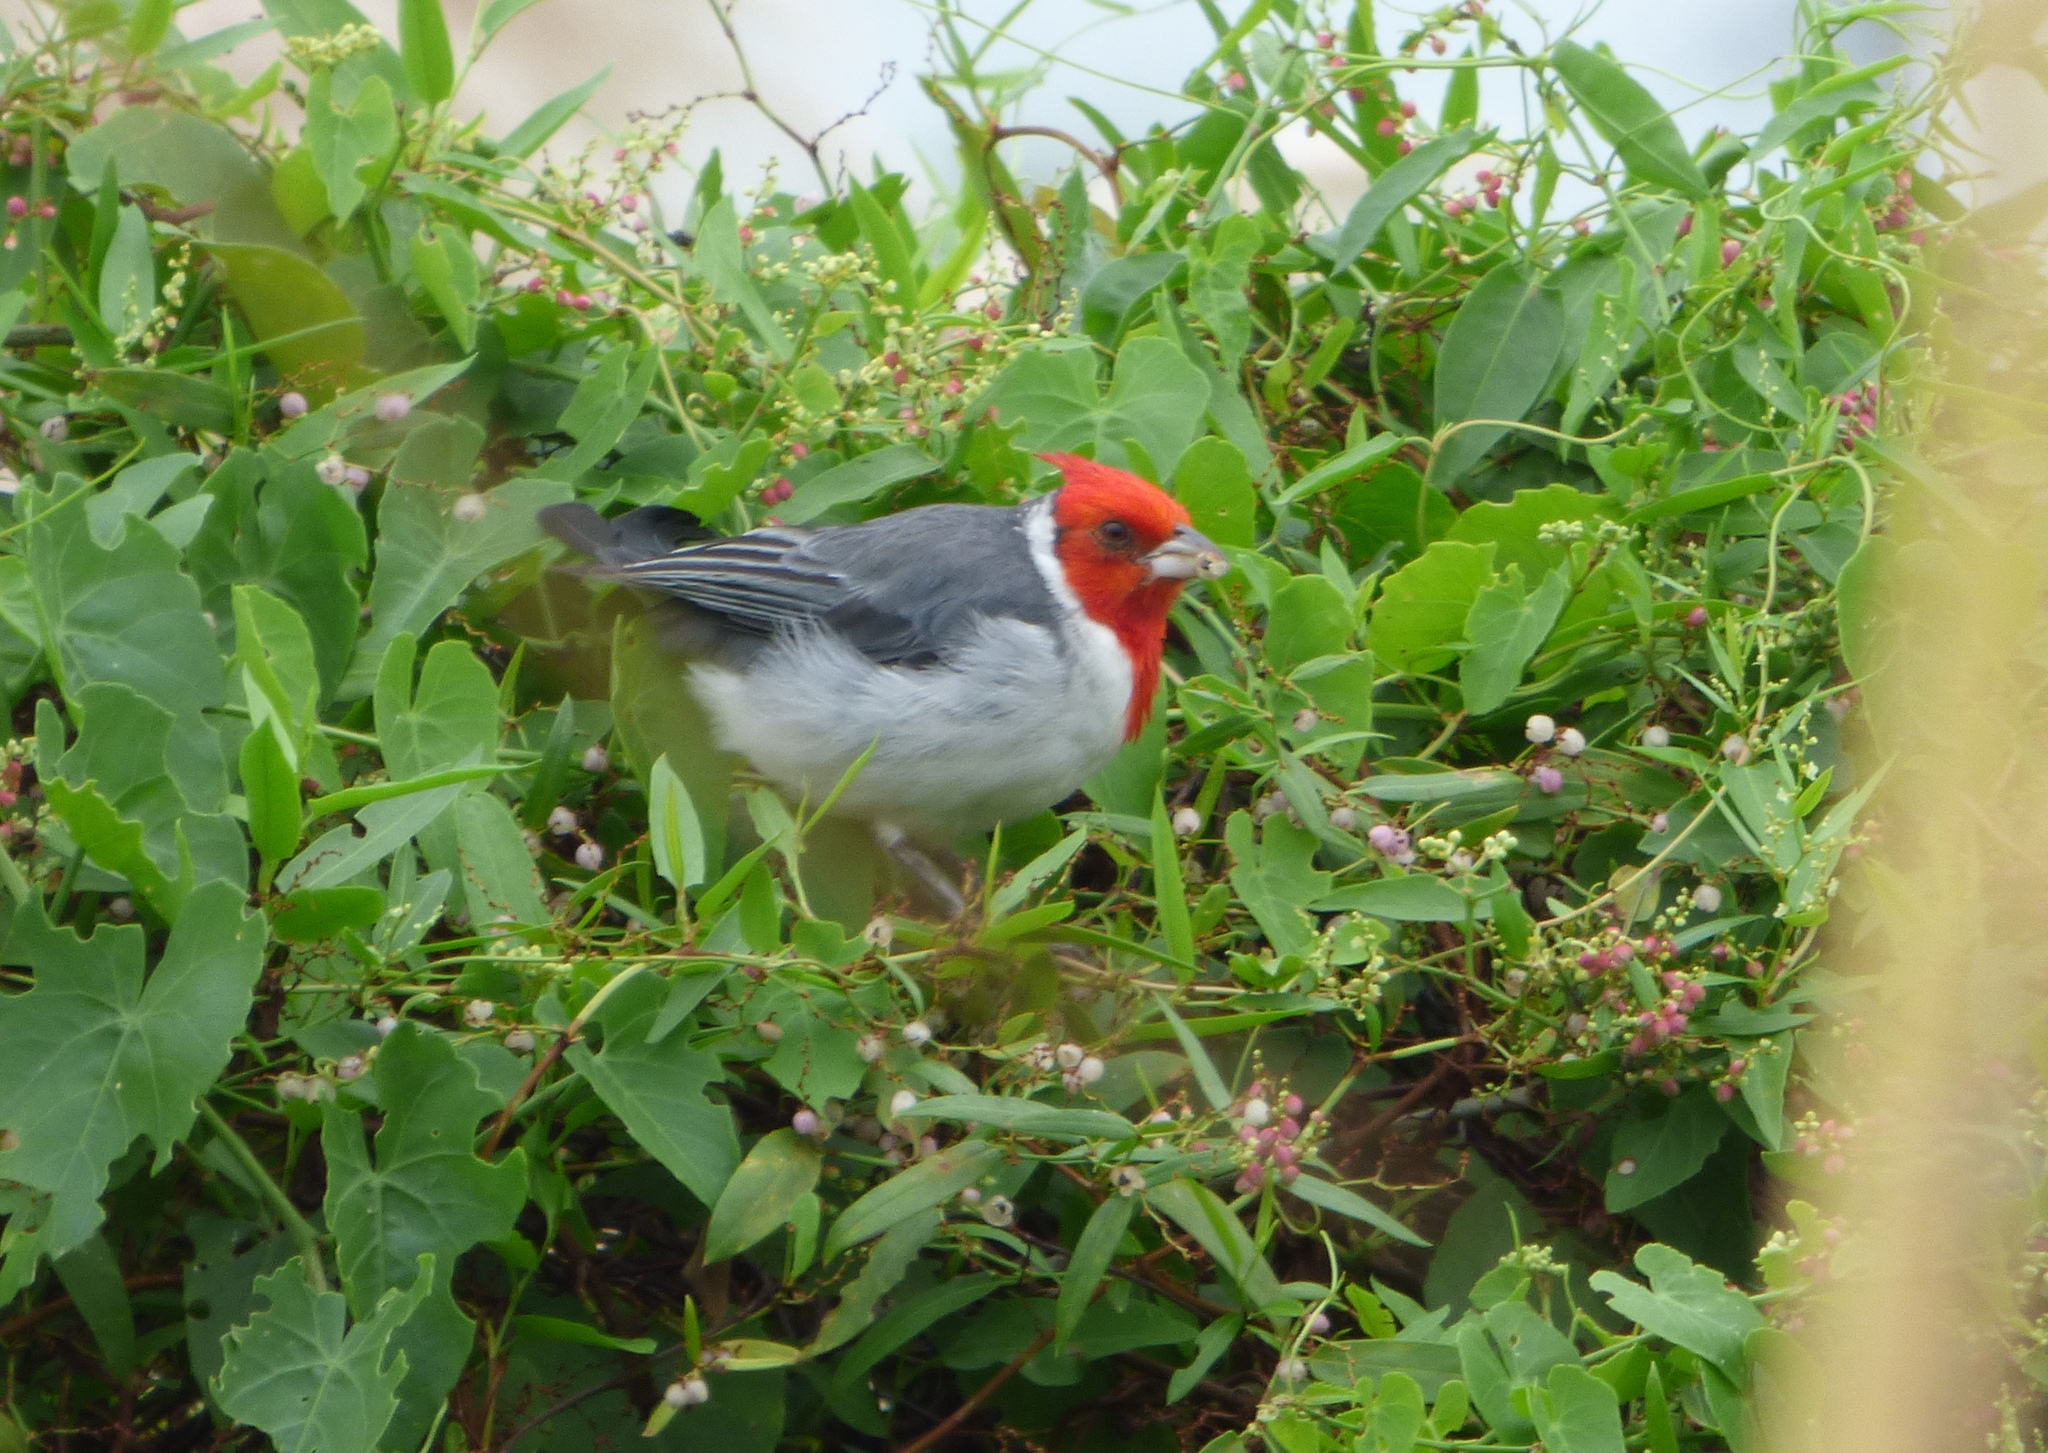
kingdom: Animalia
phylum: Chordata
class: Aves
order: Passeriformes
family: Thraupidae
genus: Paroaria
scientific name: Paroaria coronata
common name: Red-crested cardinal
